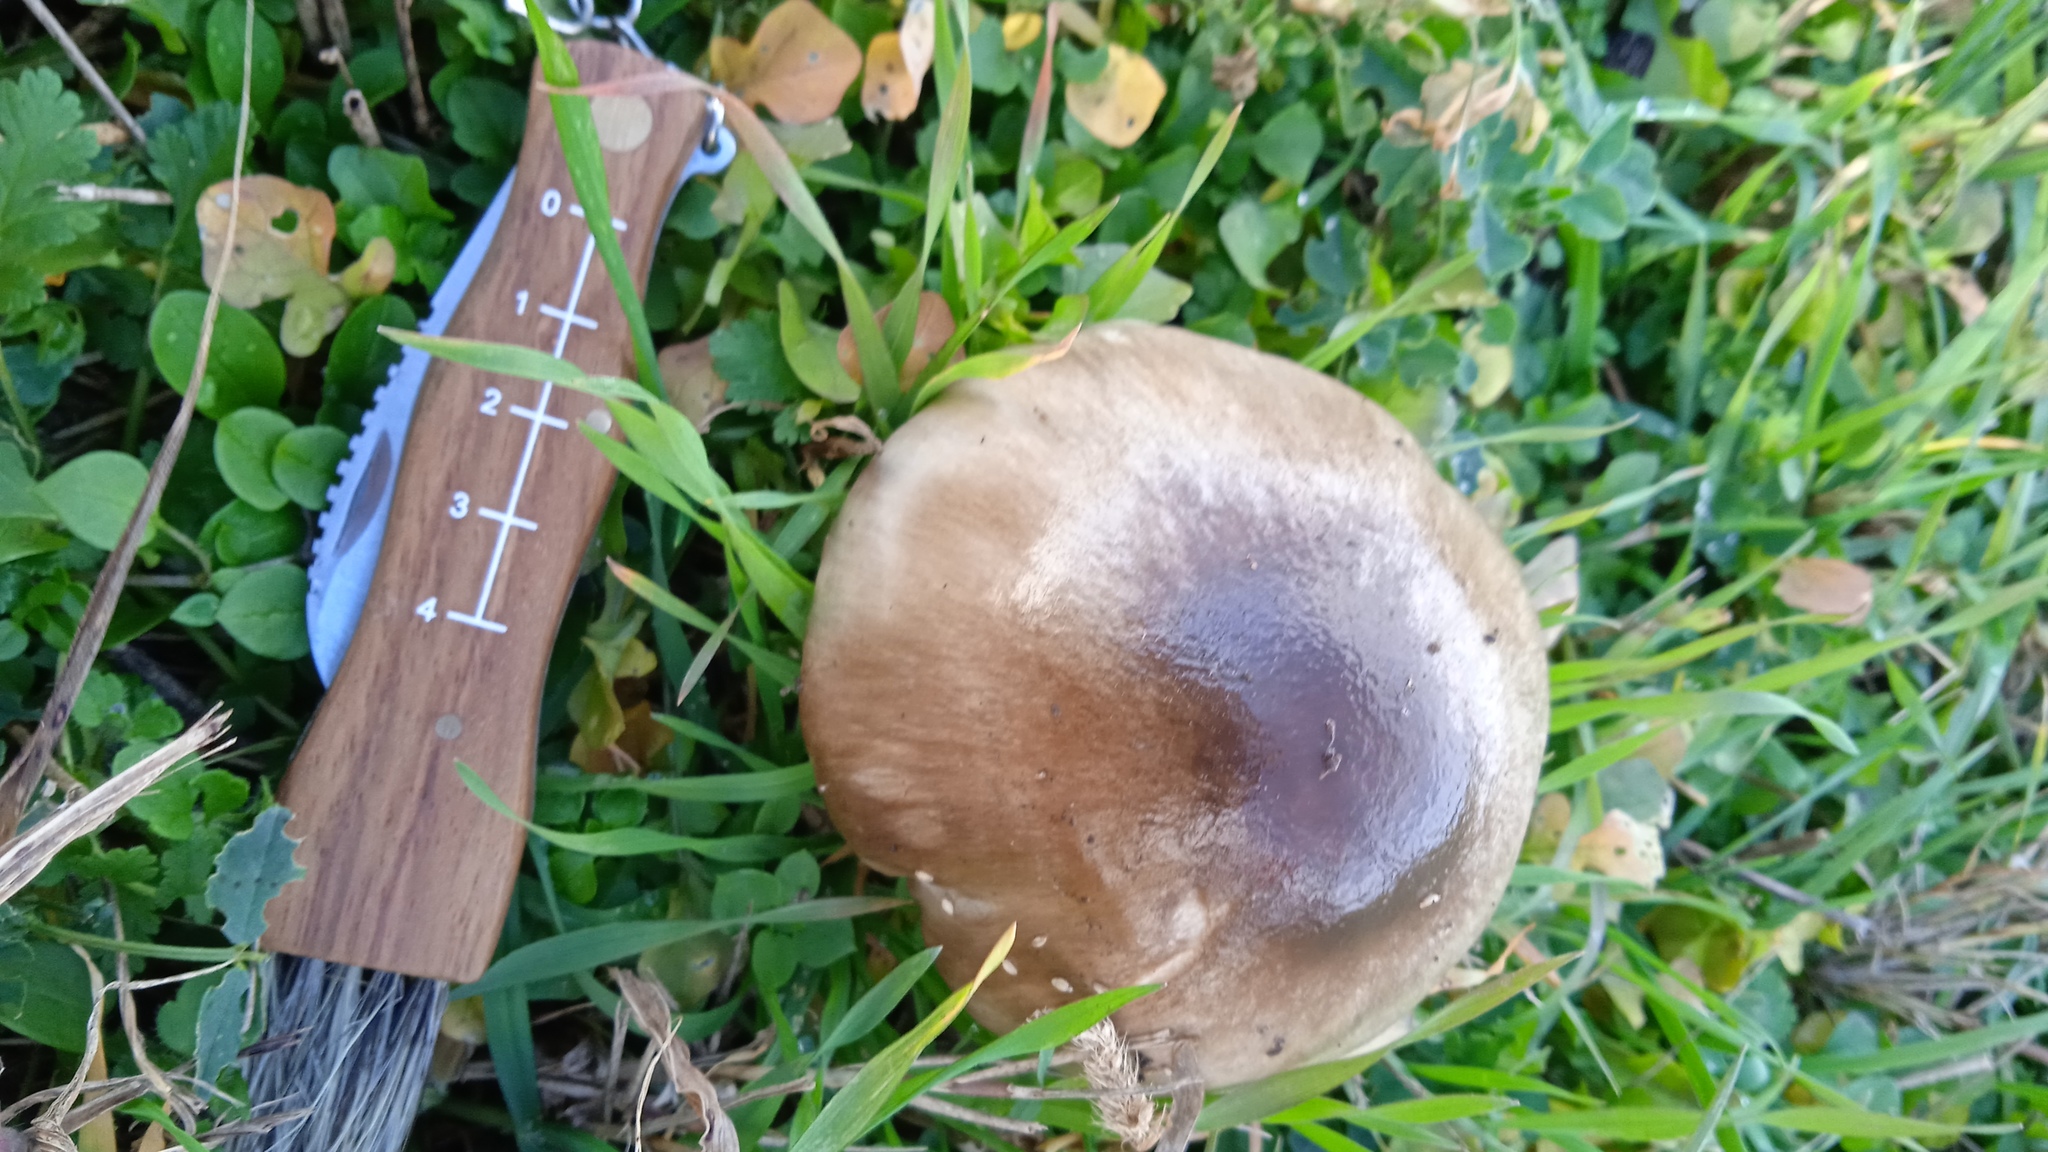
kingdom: Fungi
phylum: Basidiomycota
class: Agaricomycetes
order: Agaricales
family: Pluteaceae
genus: Volvopluteus
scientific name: Volvopluteus gloiocephalus
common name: Stubble rosegill
